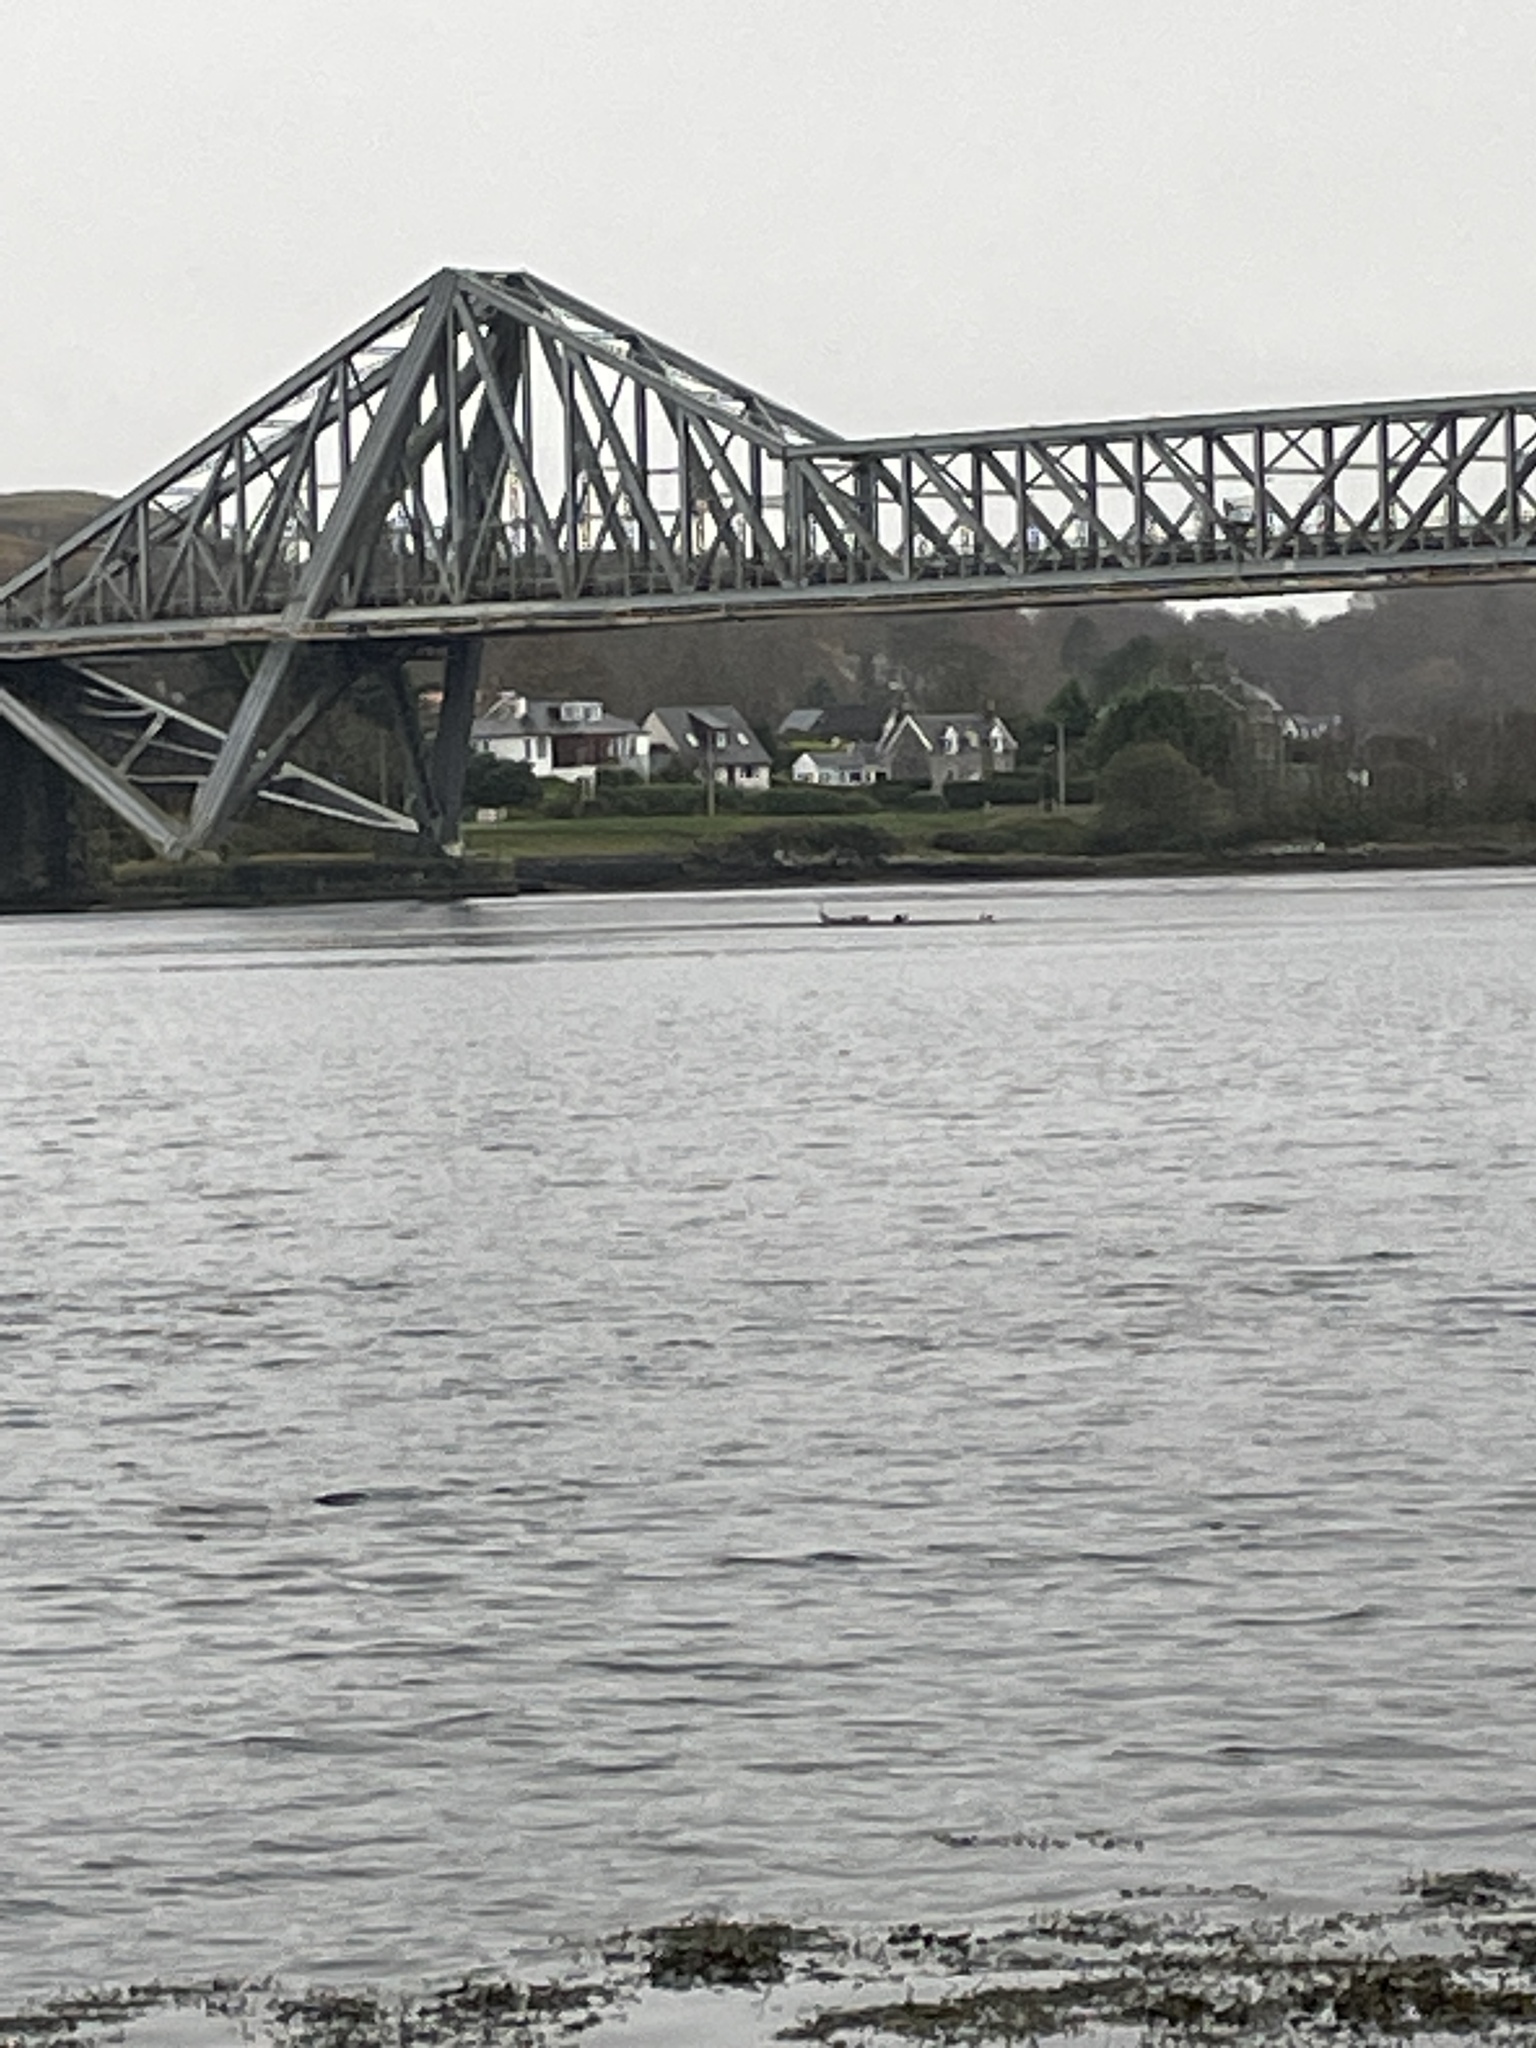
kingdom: Animalia
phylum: Chordata
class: Mammalia
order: Carnivora
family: Phocidae
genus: Phoca
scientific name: Phoca vitulina
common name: Harbor seal
